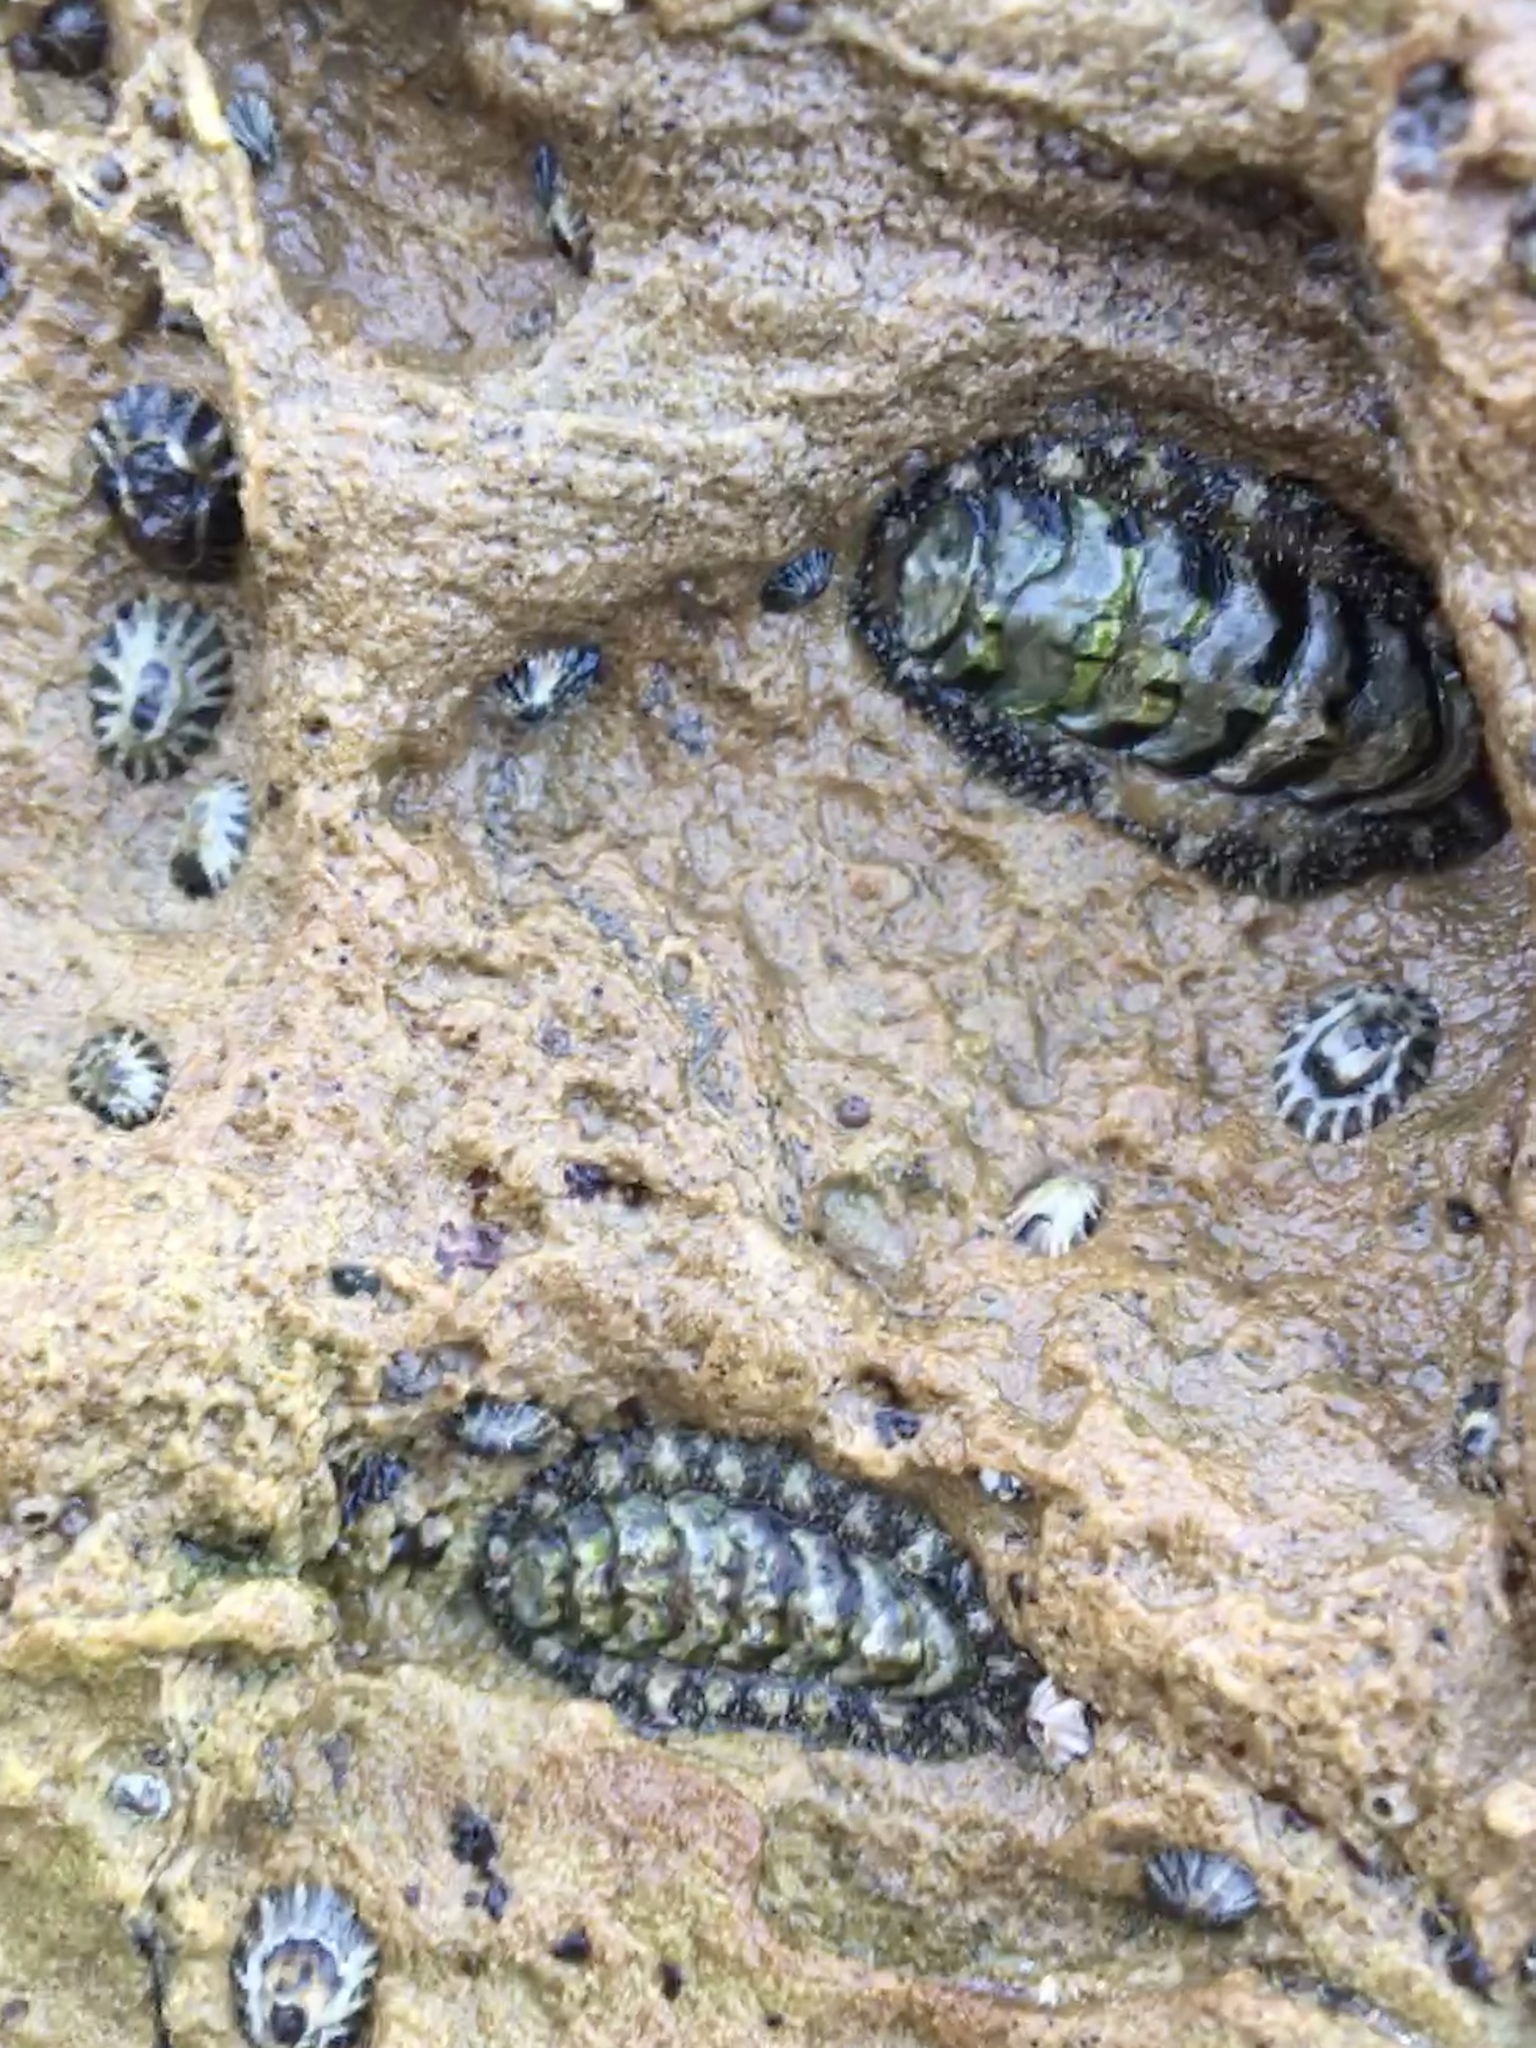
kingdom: Animalia
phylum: Mollusca
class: Polyplacophora
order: Chitonida
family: Tonicellidae
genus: Nuttallina
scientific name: Nuttallina californica
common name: California nuttall chiton
